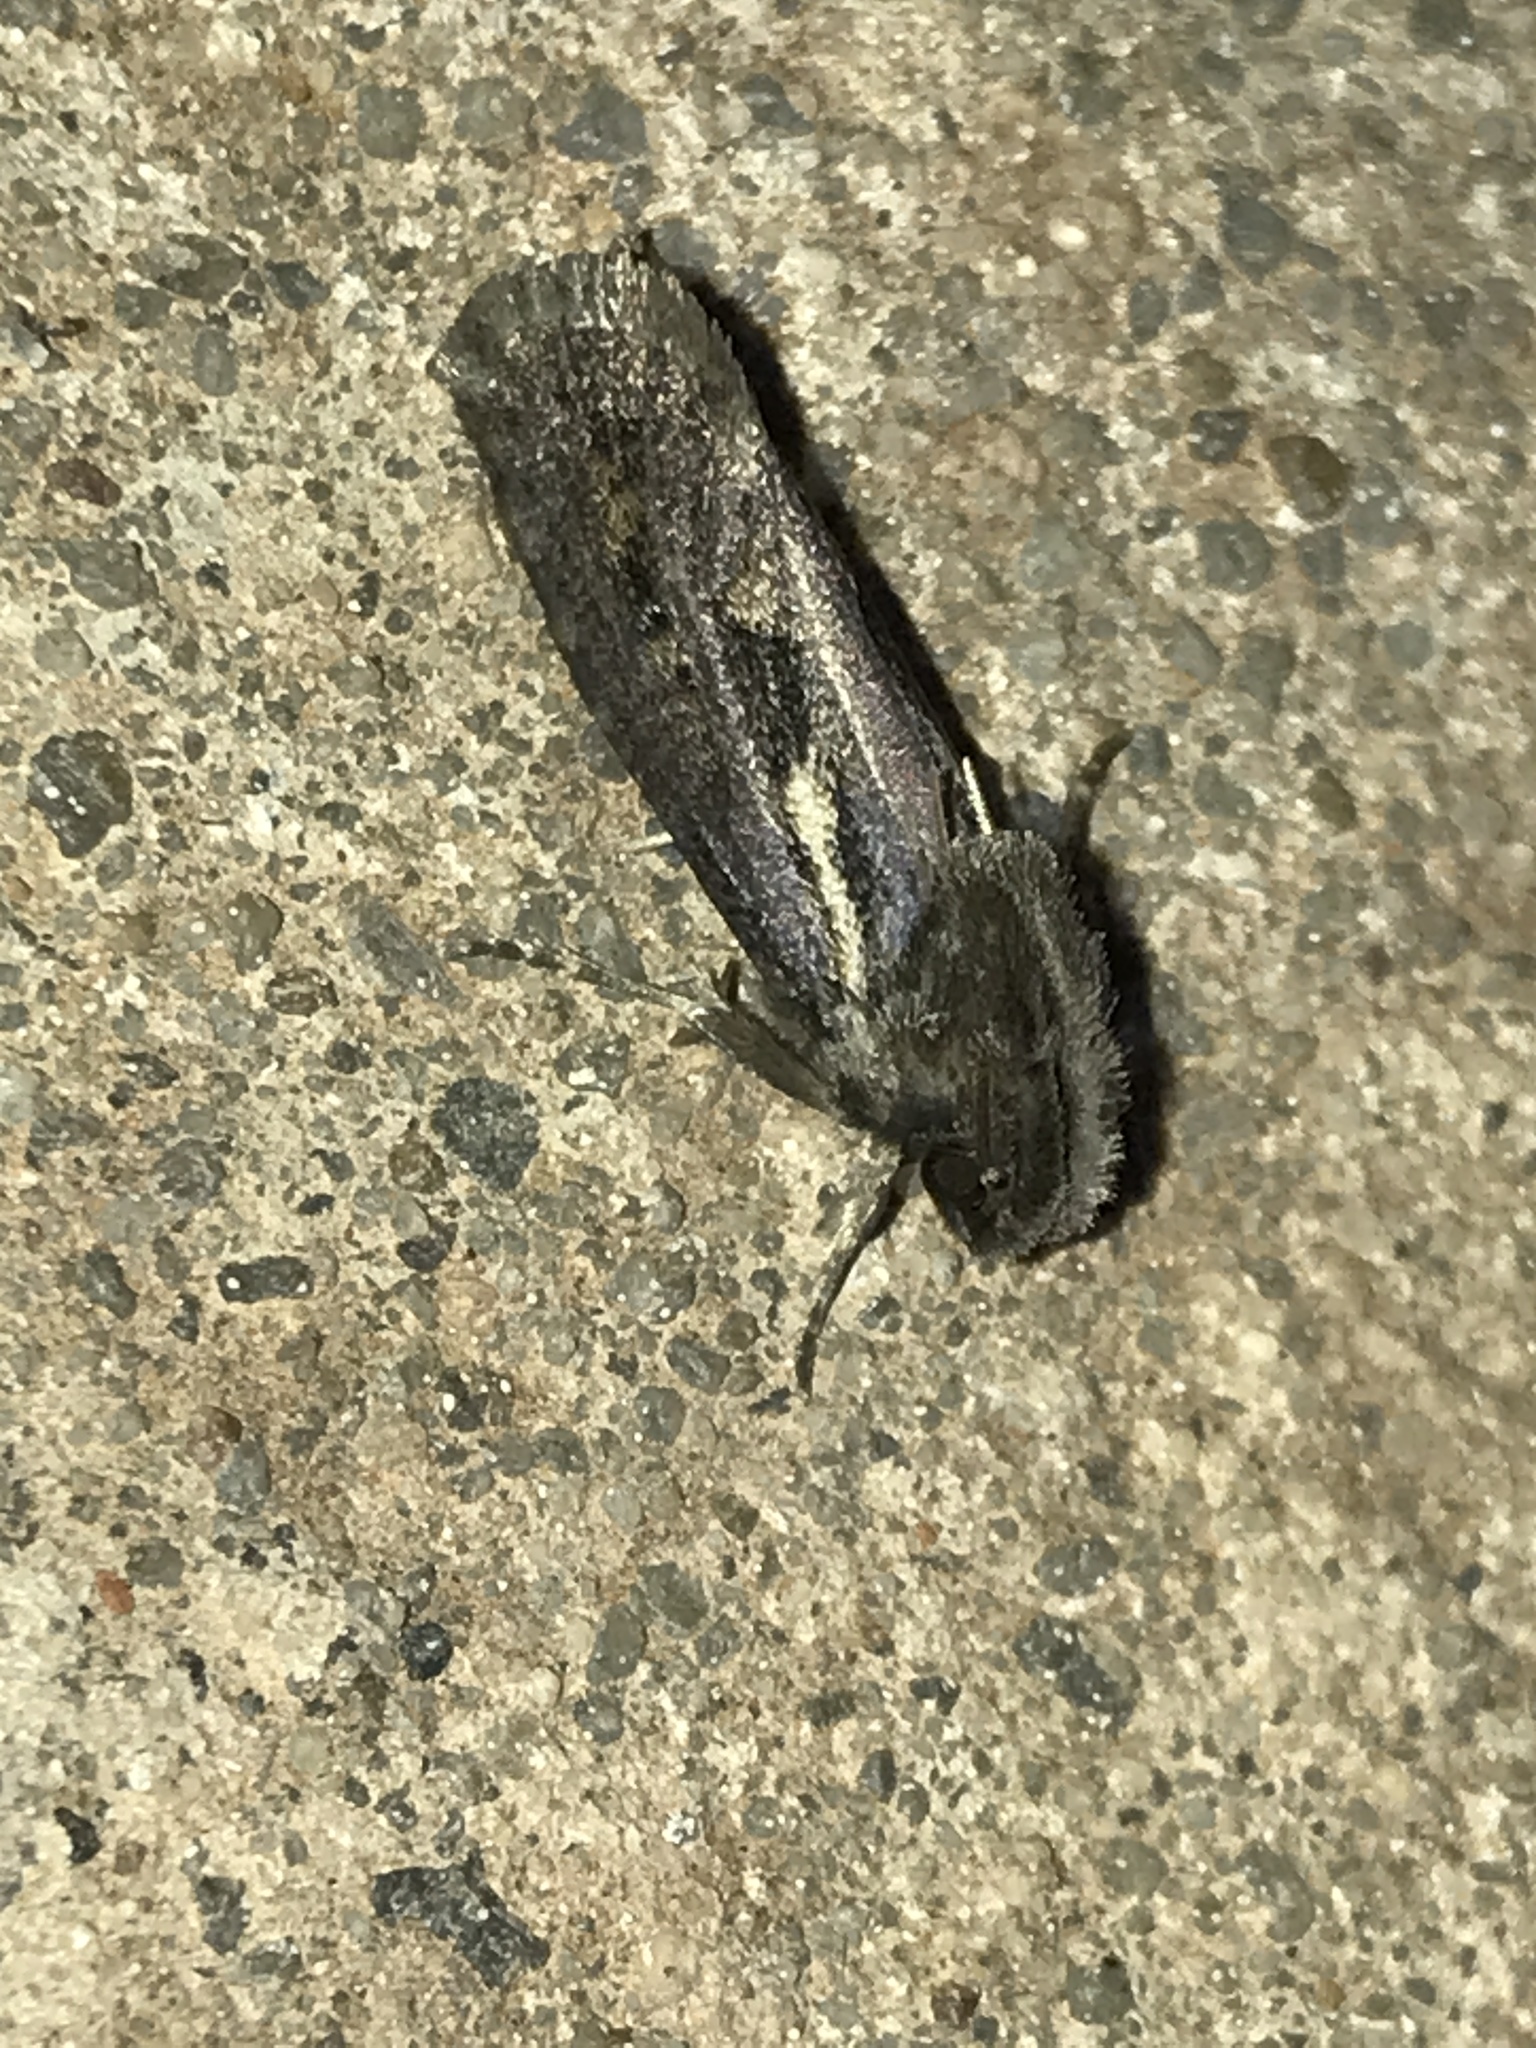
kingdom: Animalia
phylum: Arthropoda
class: Insecta
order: Lepidoptera
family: Tineidae
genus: Acrolophus
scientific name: Acrolophus popeanella
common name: Clemens' grass tubeworm moth
